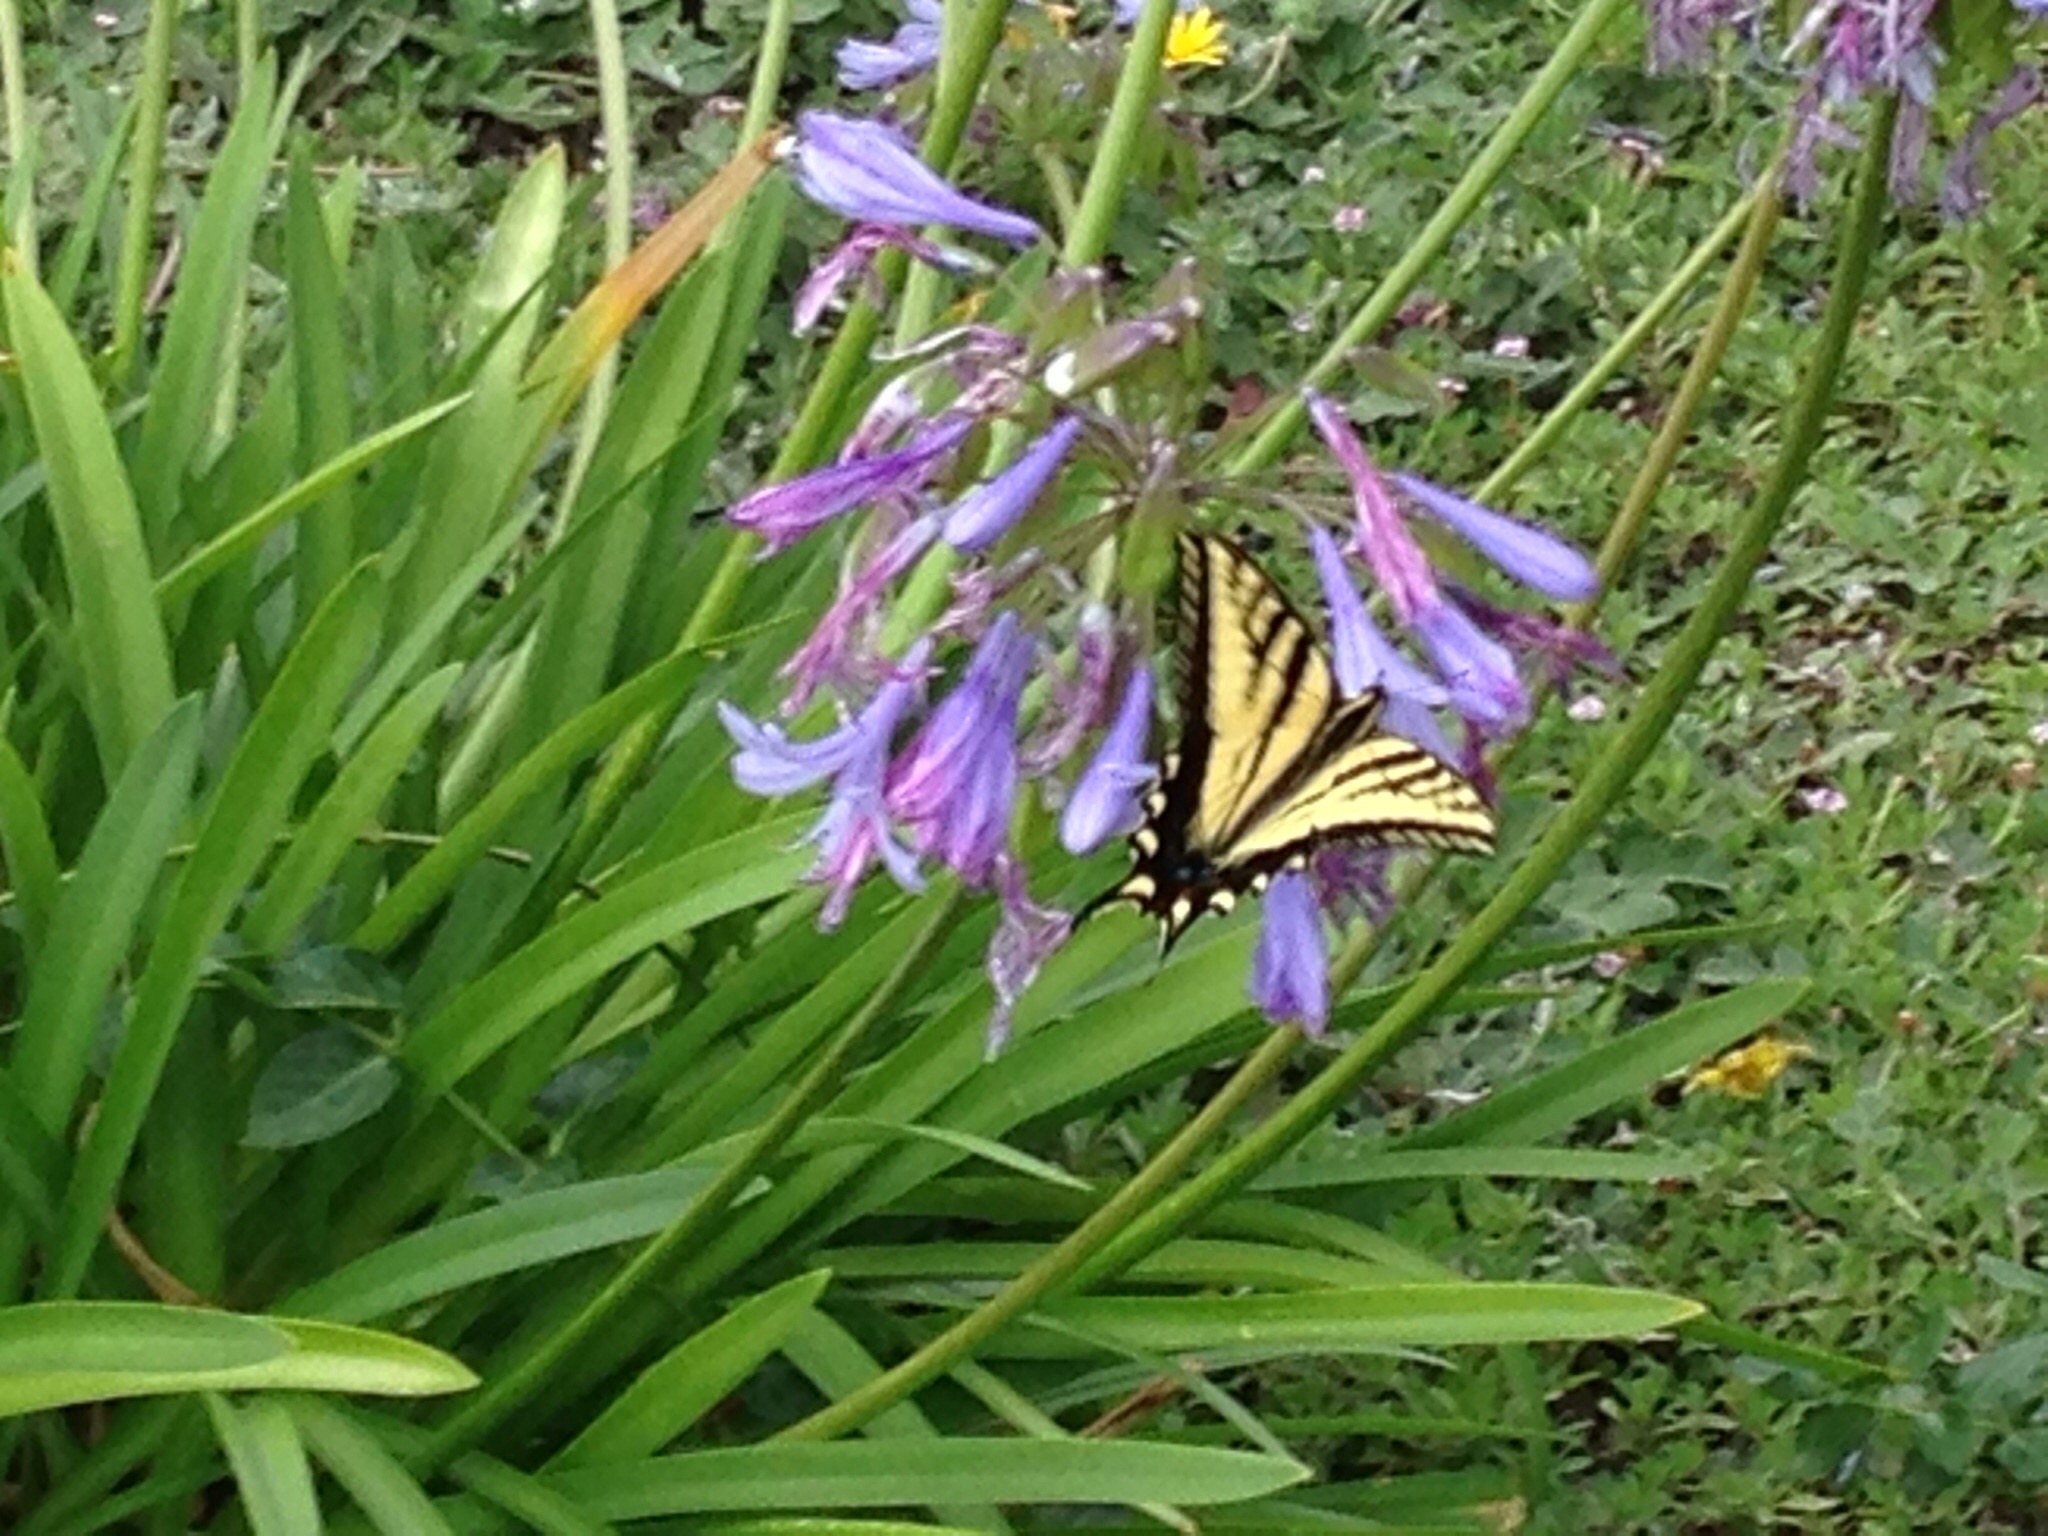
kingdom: Animalia
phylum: Arthropoda
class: Insecta
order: Lepidoptera
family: Papilionidae
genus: Papilio
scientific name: Papilio rutulus
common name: Western tiger swallowtail
